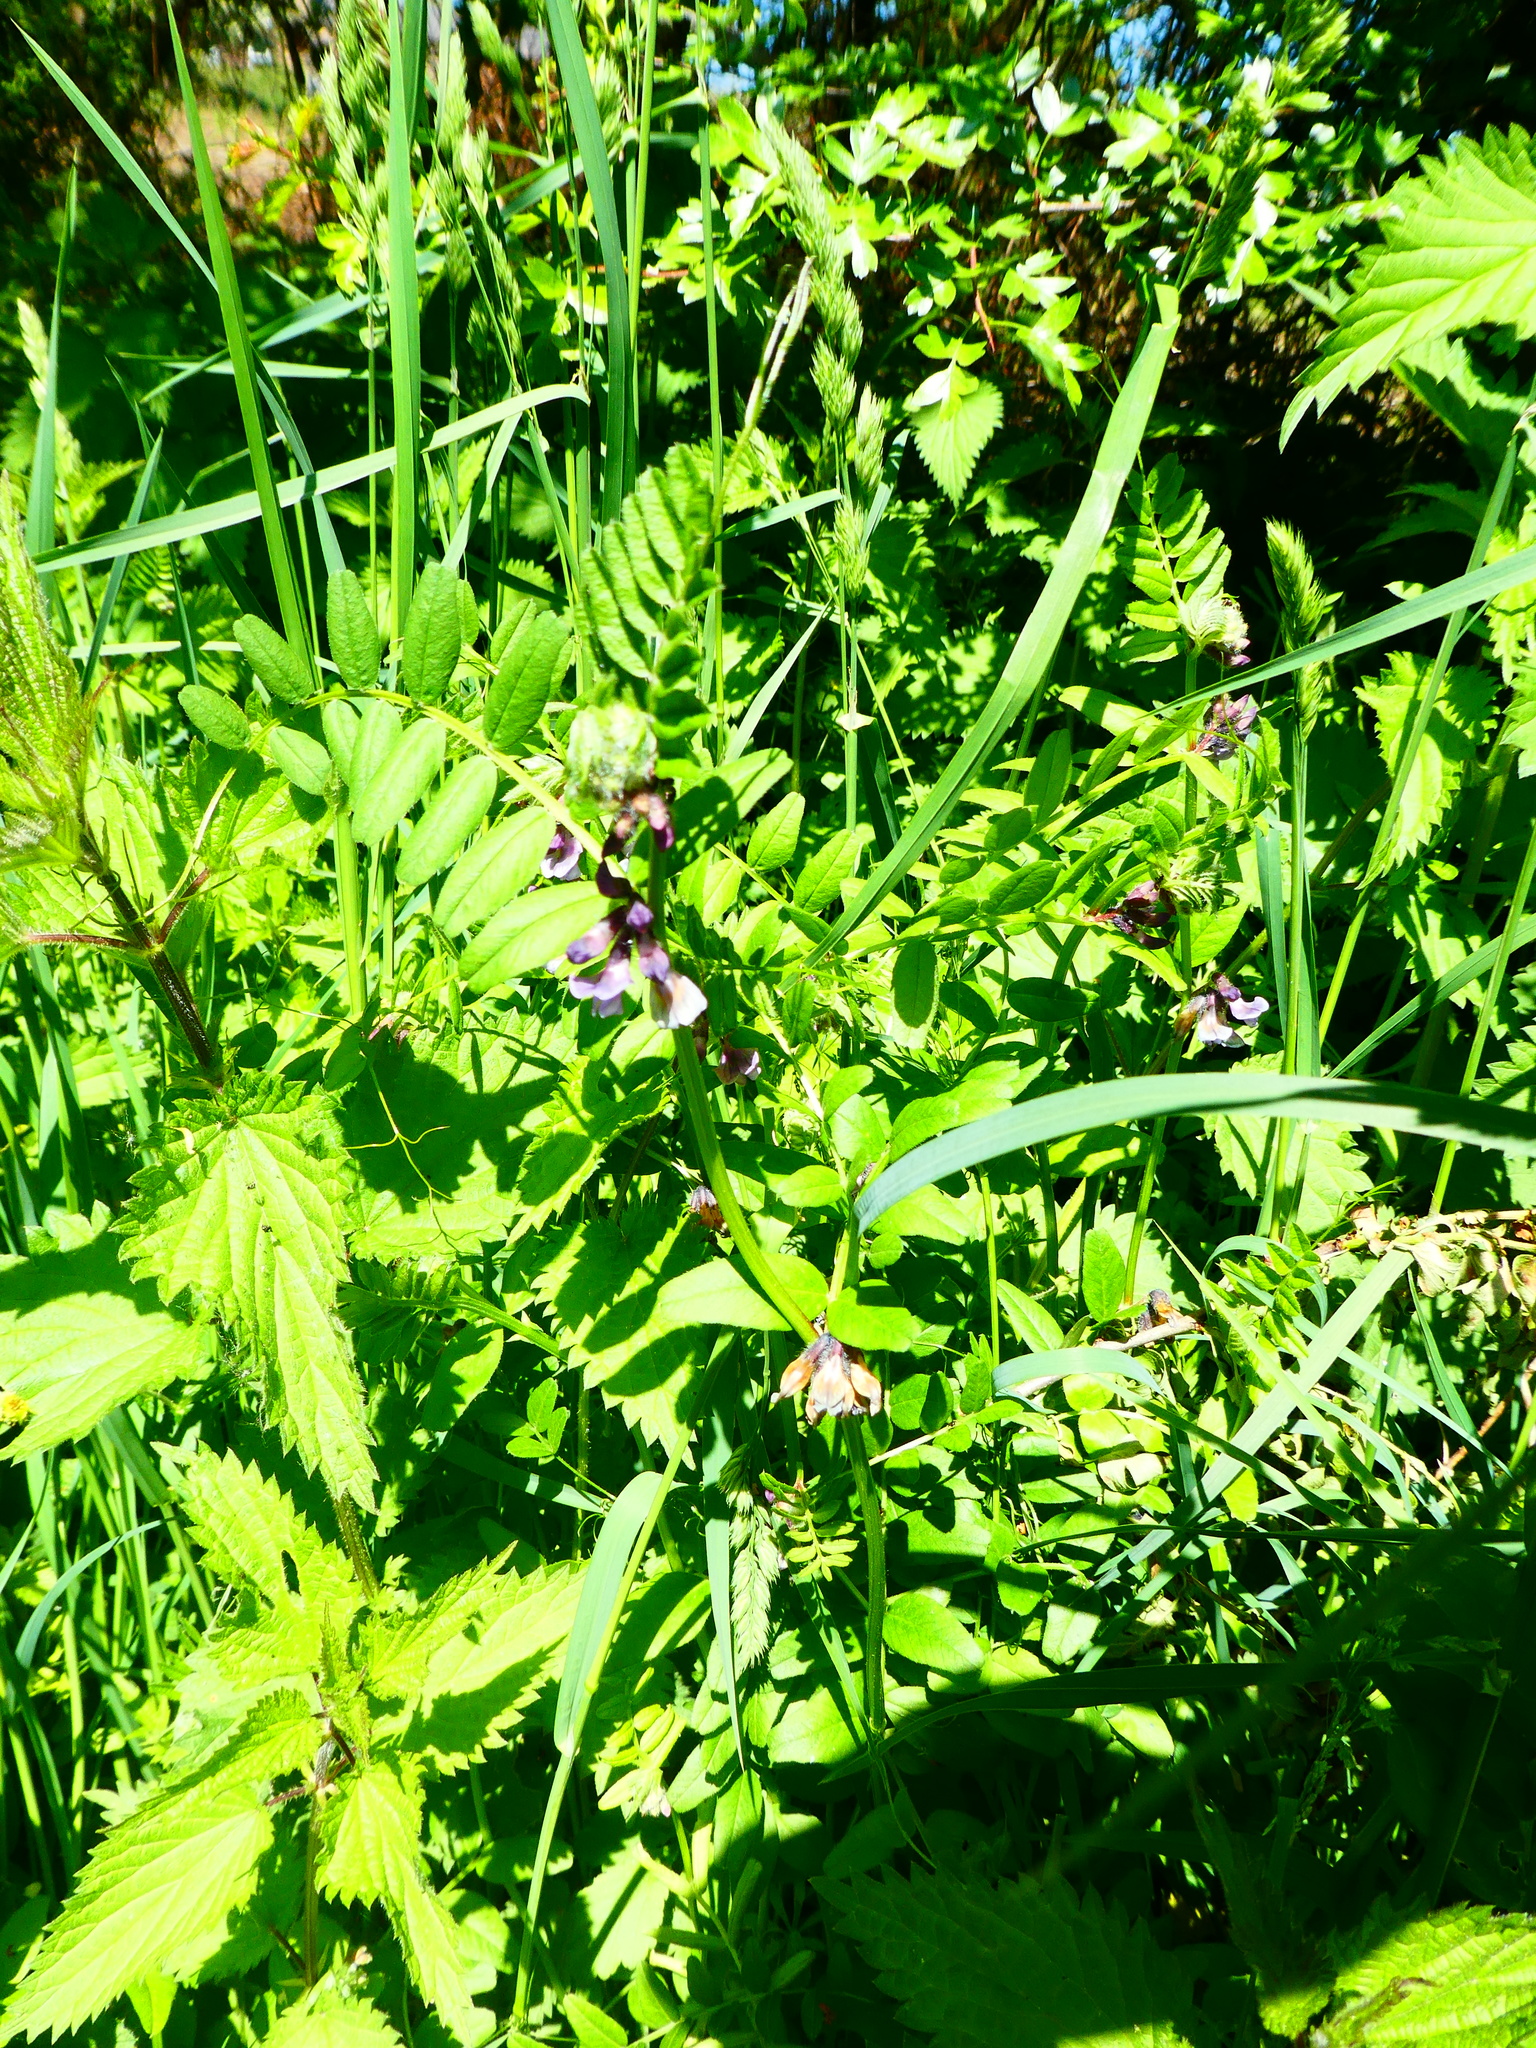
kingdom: Plantae
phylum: Tracheophyta
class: Magnoliopsida
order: Fabales
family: Fabaceae
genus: Vicia
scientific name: Vicia sepium
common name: Bush vetch
